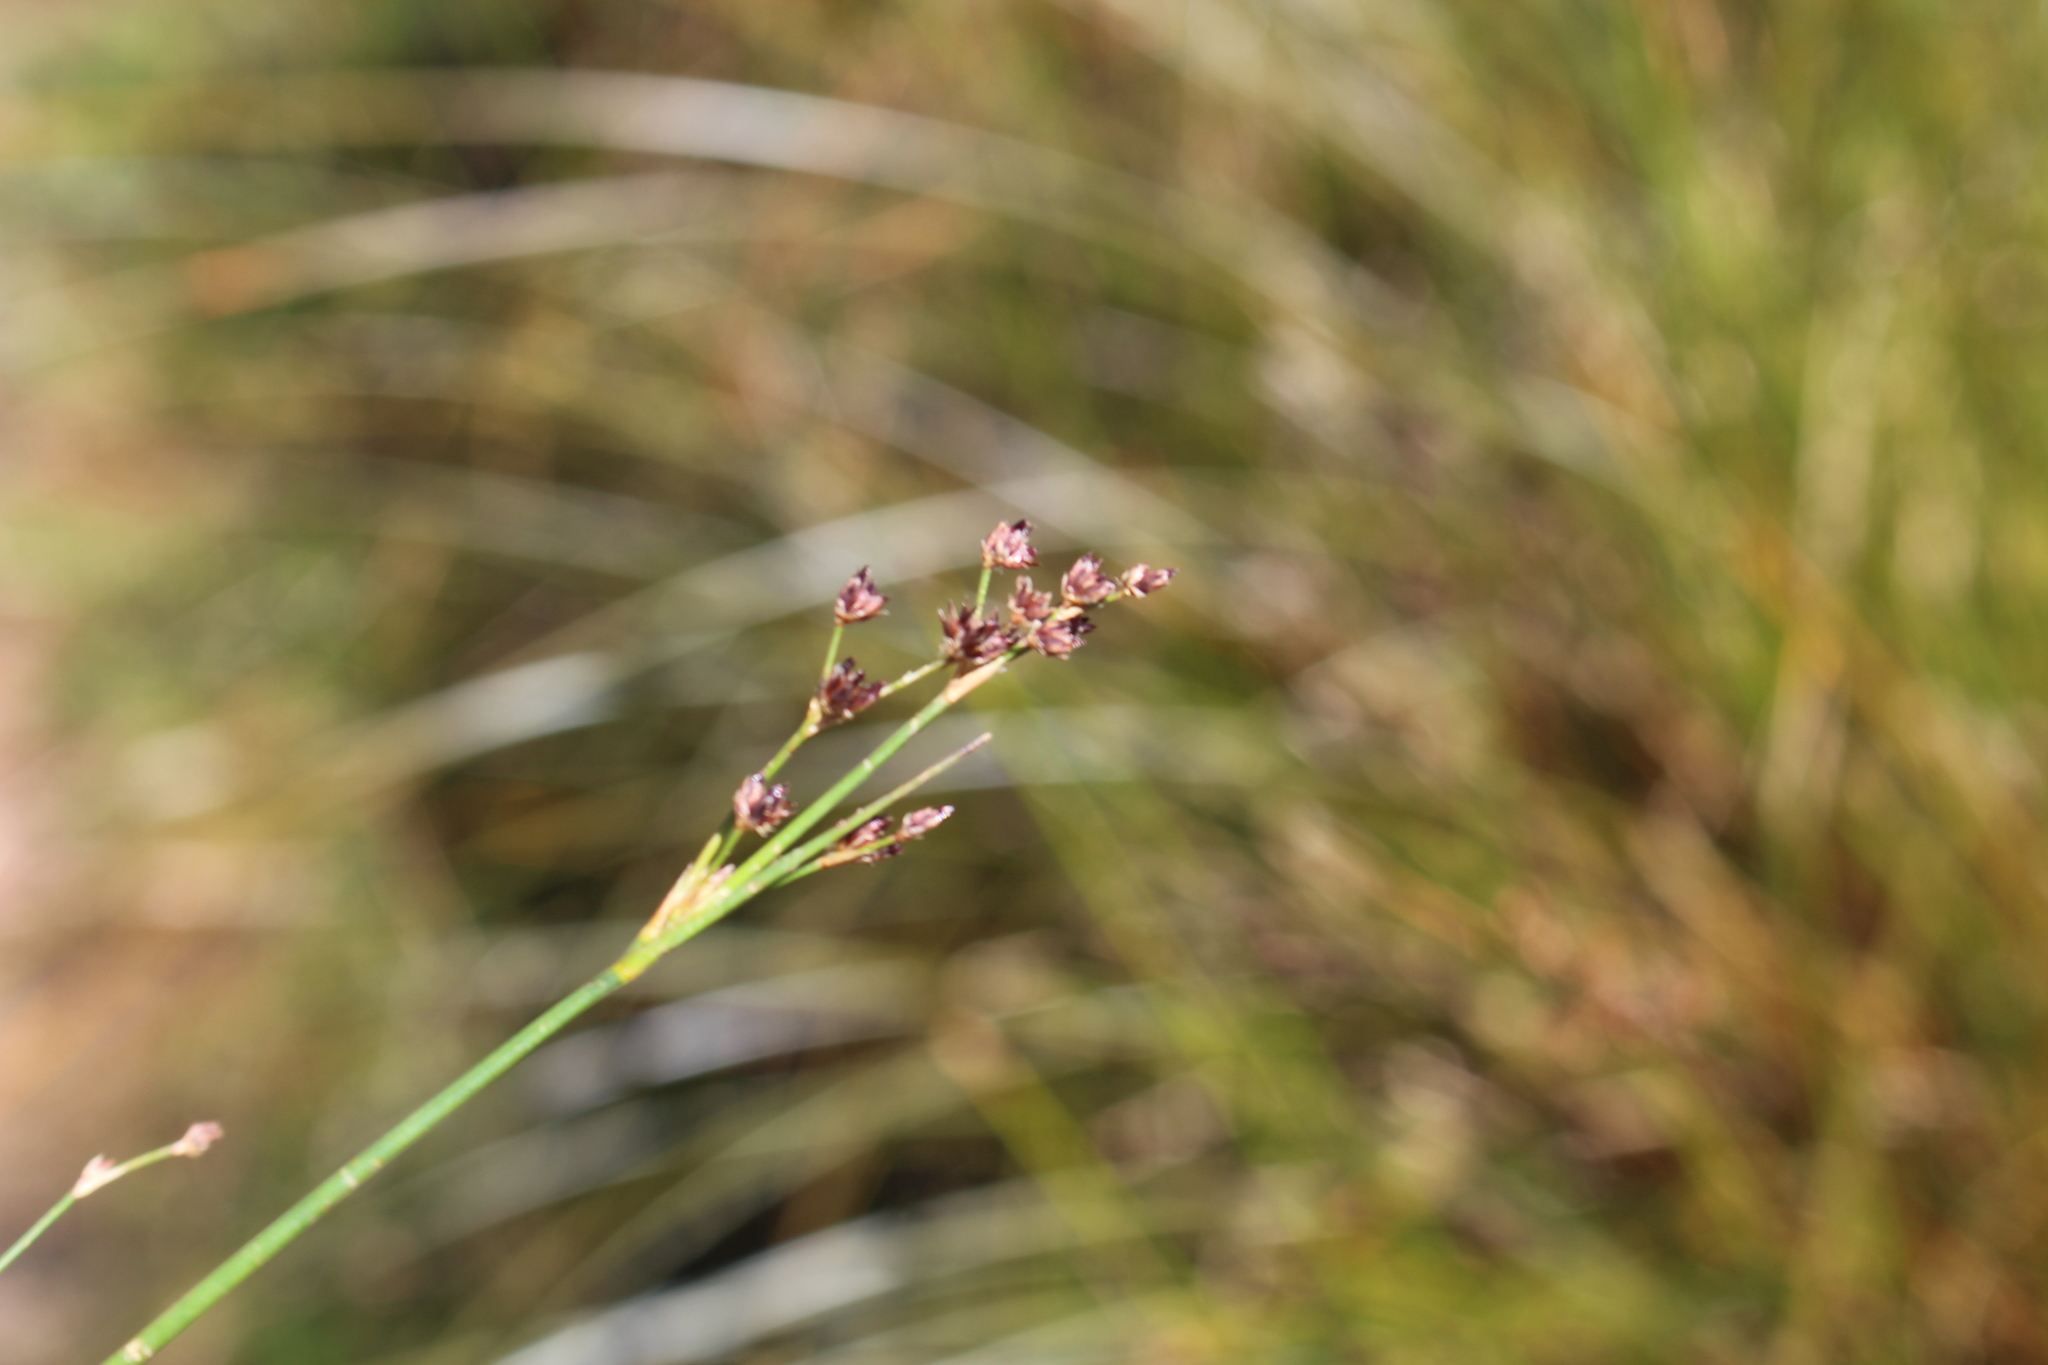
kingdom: Plantae
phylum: Tracheophyta
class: Liliopsida
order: Poales
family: Juncaceae
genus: Juncus
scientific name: Juncus articulatus
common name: Jointed rush
